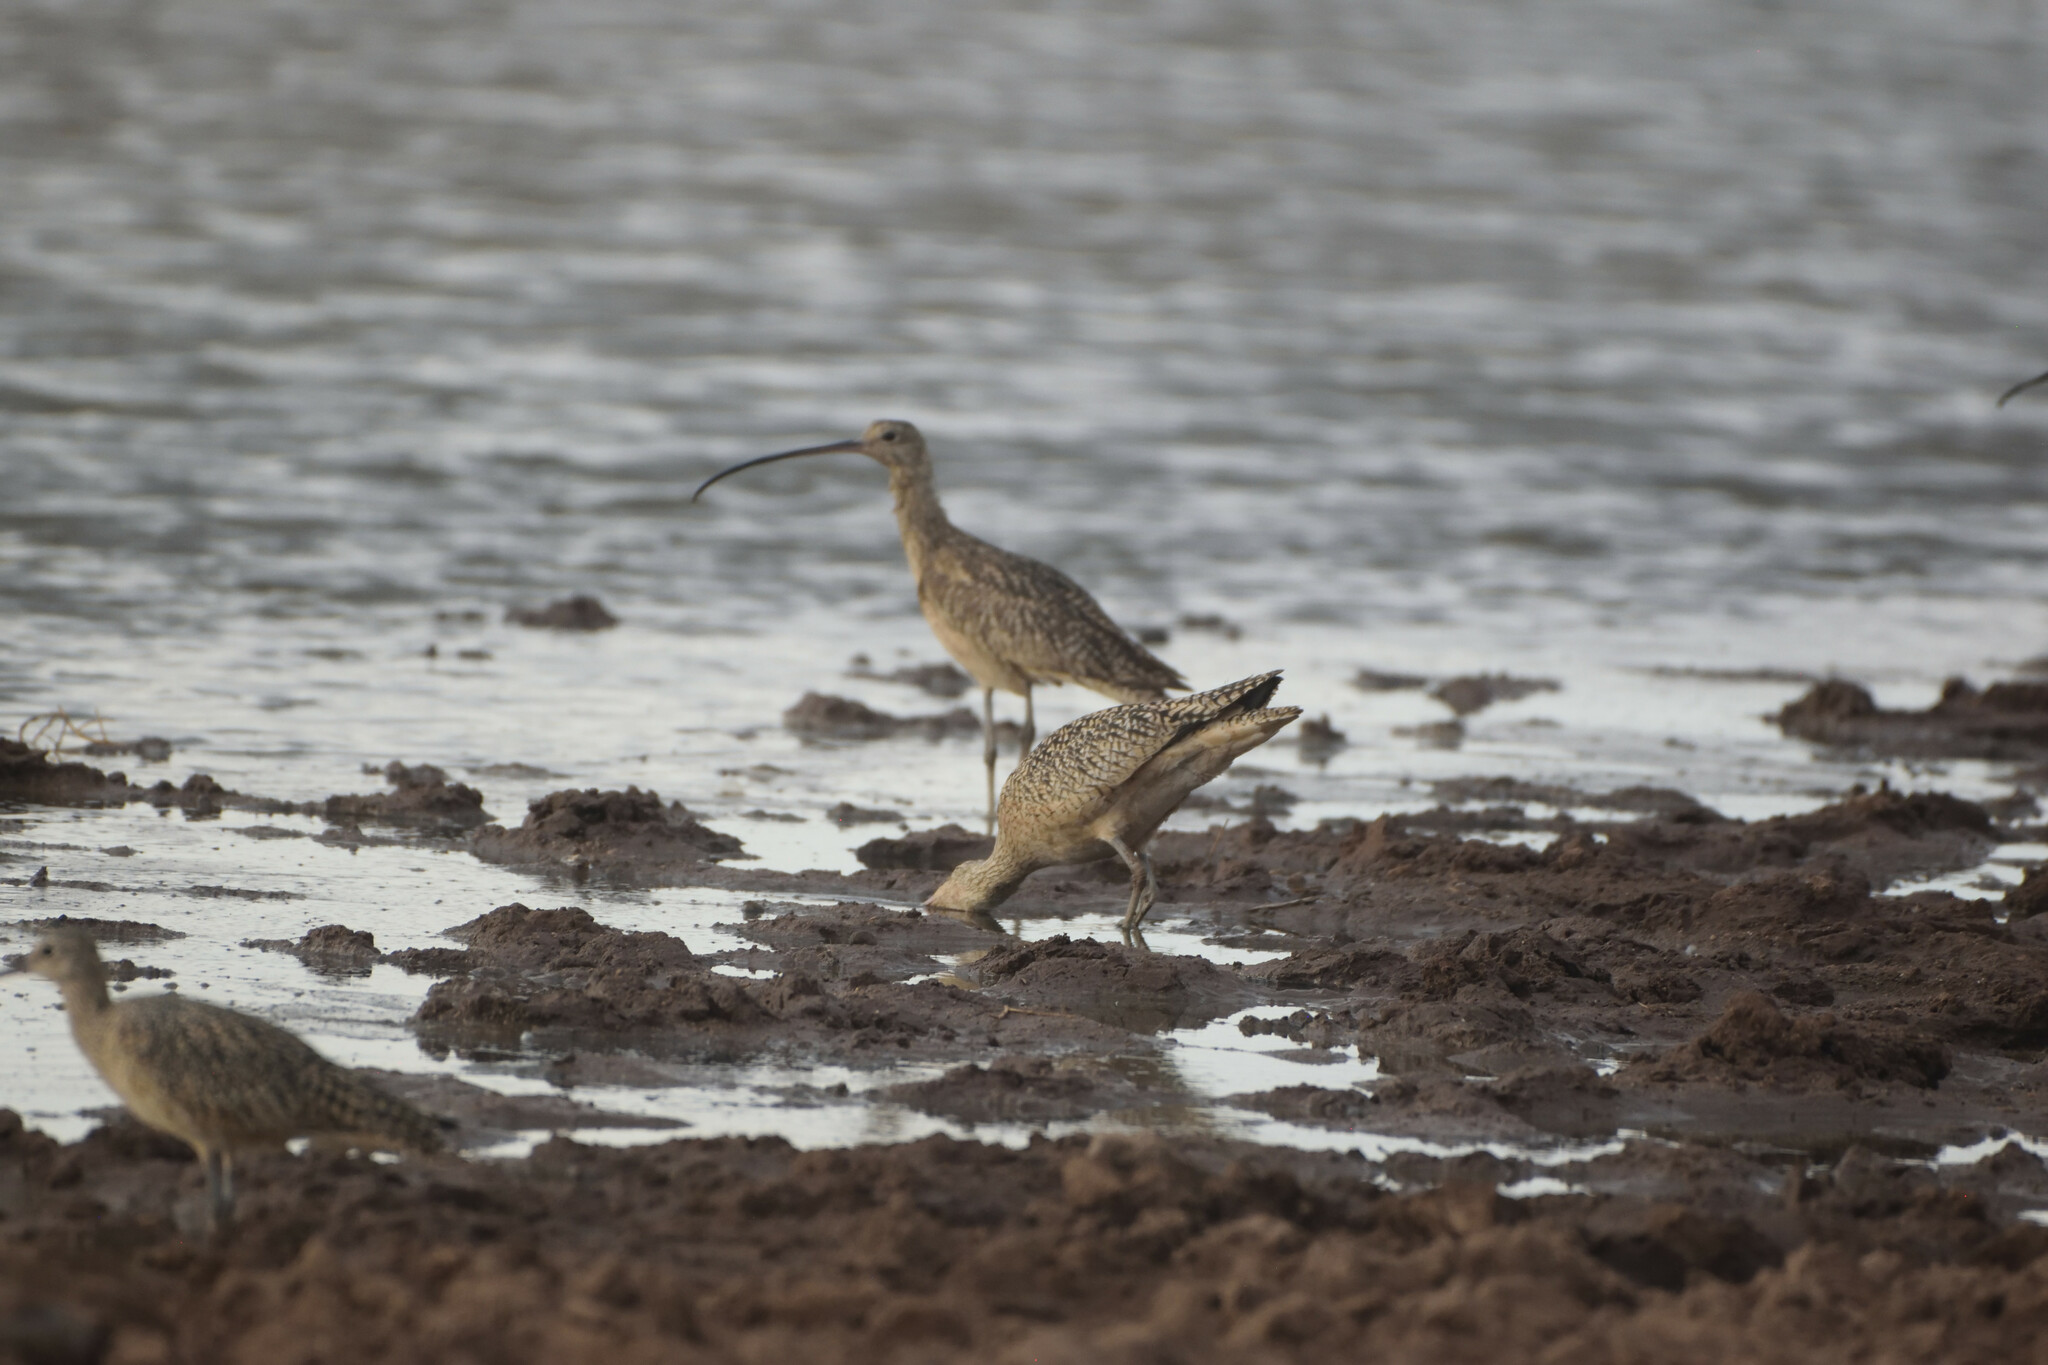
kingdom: Animalia
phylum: Chordata
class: Aves
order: Charadriiformes
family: Scolopacidae
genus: Numenius
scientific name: Numenius americanus
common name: Long-billed curlew
